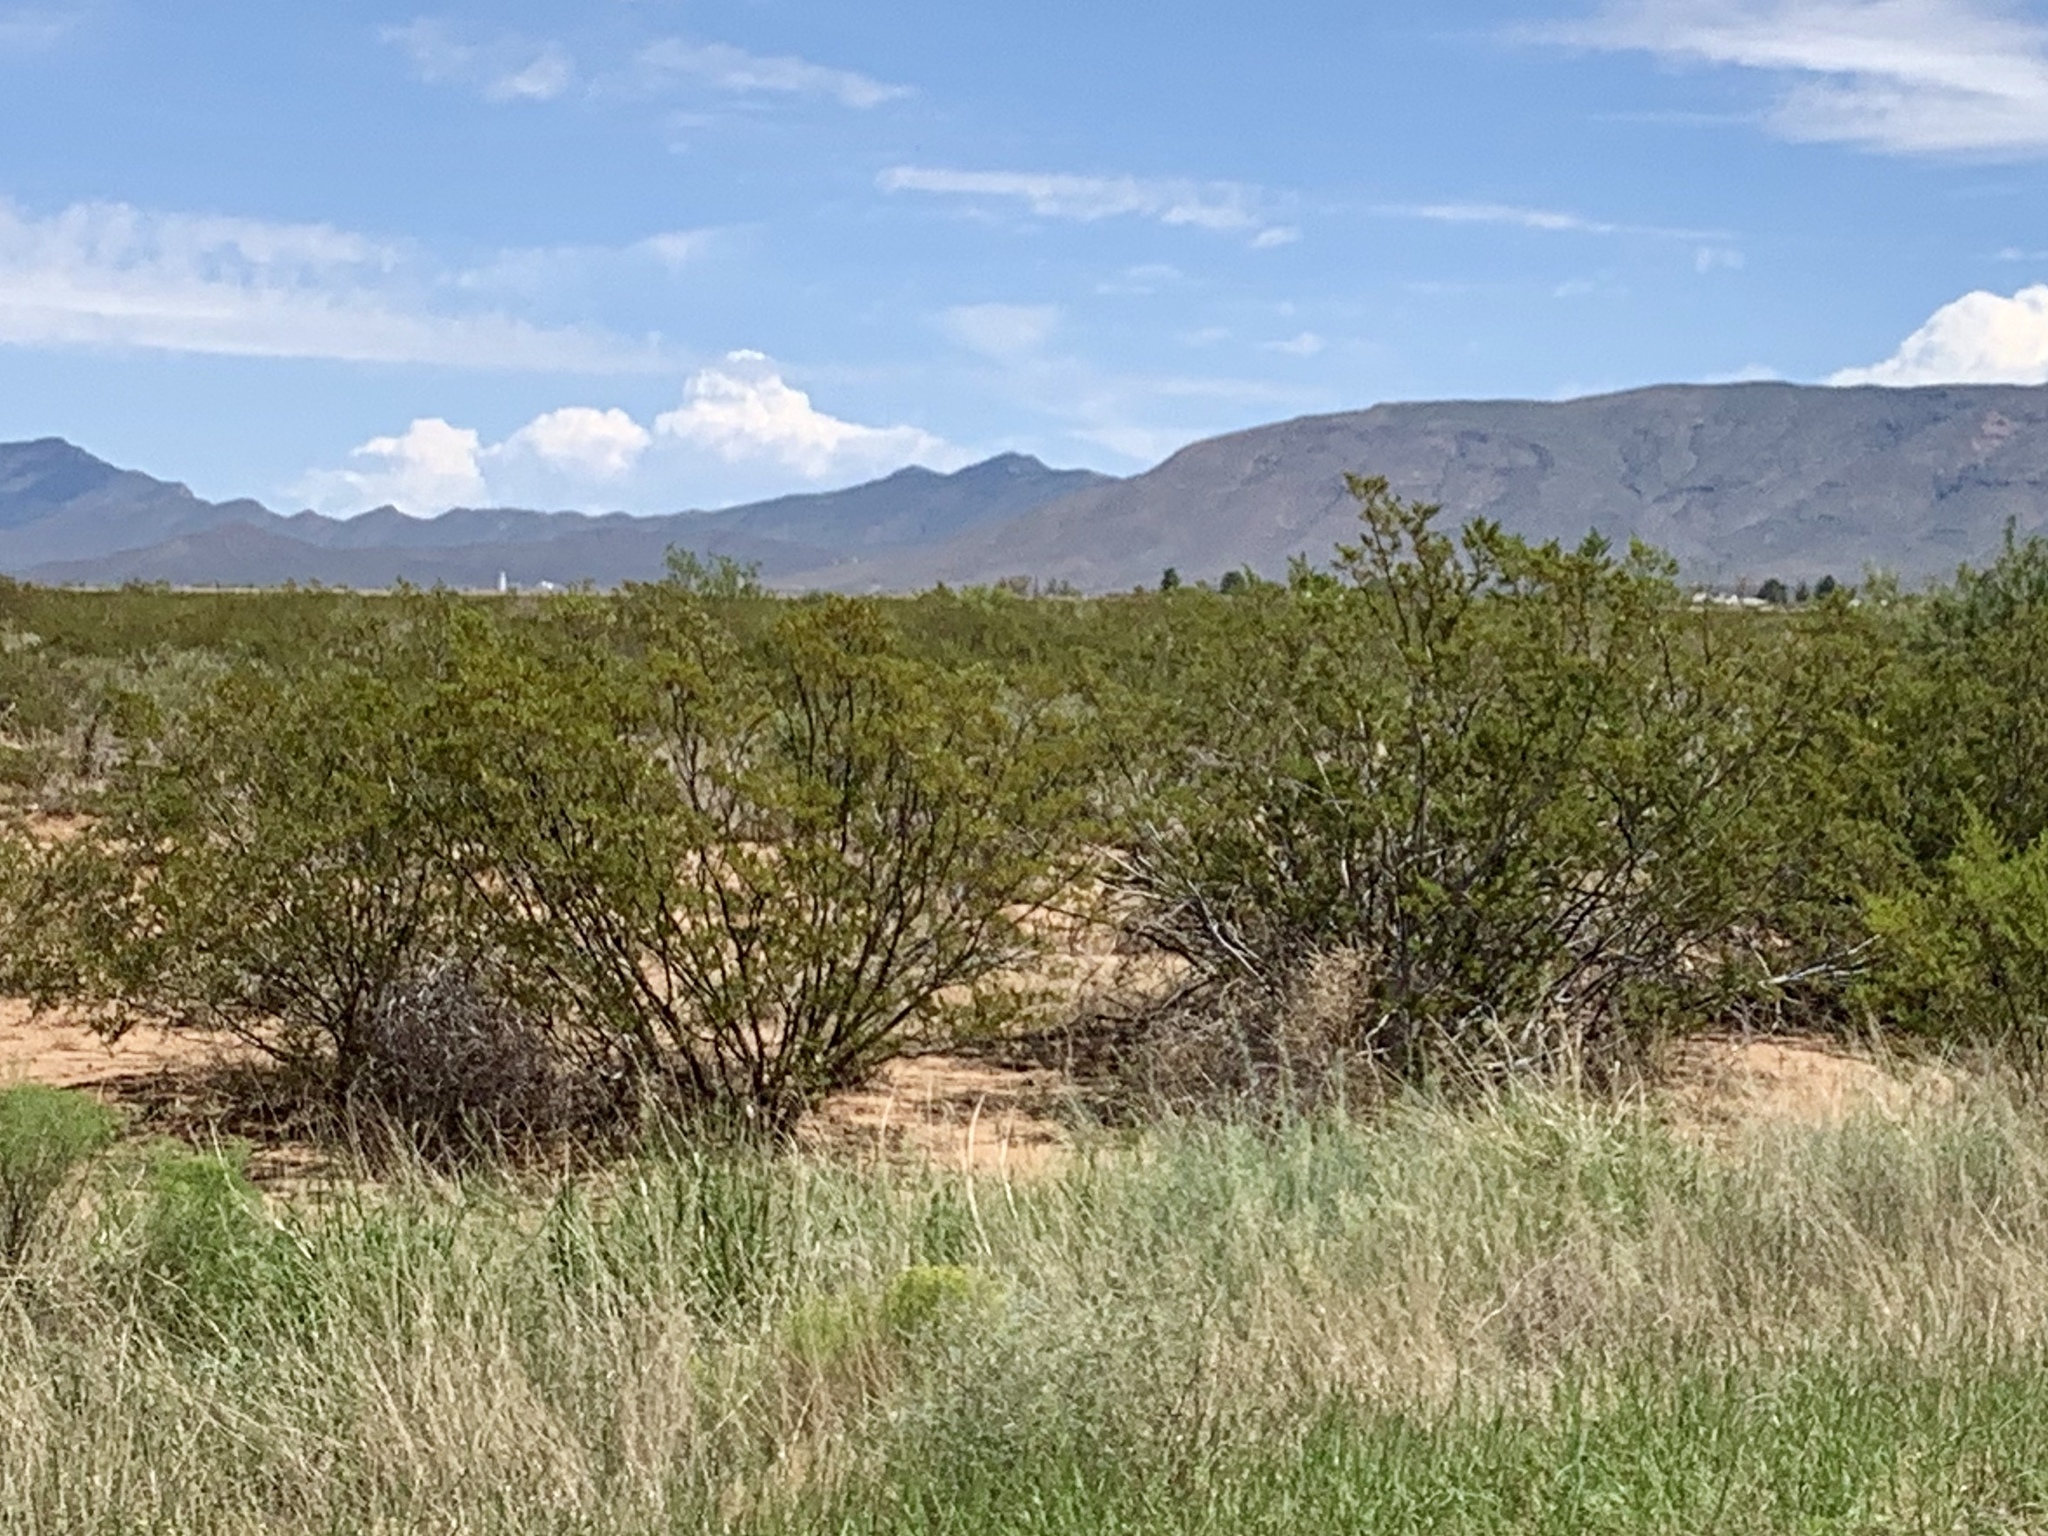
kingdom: Plantae
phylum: Tracheophyta
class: Magnoliopsida
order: Zygophyllales
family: Zygophyllaceae
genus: Larrea
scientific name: Larrea tridentata
